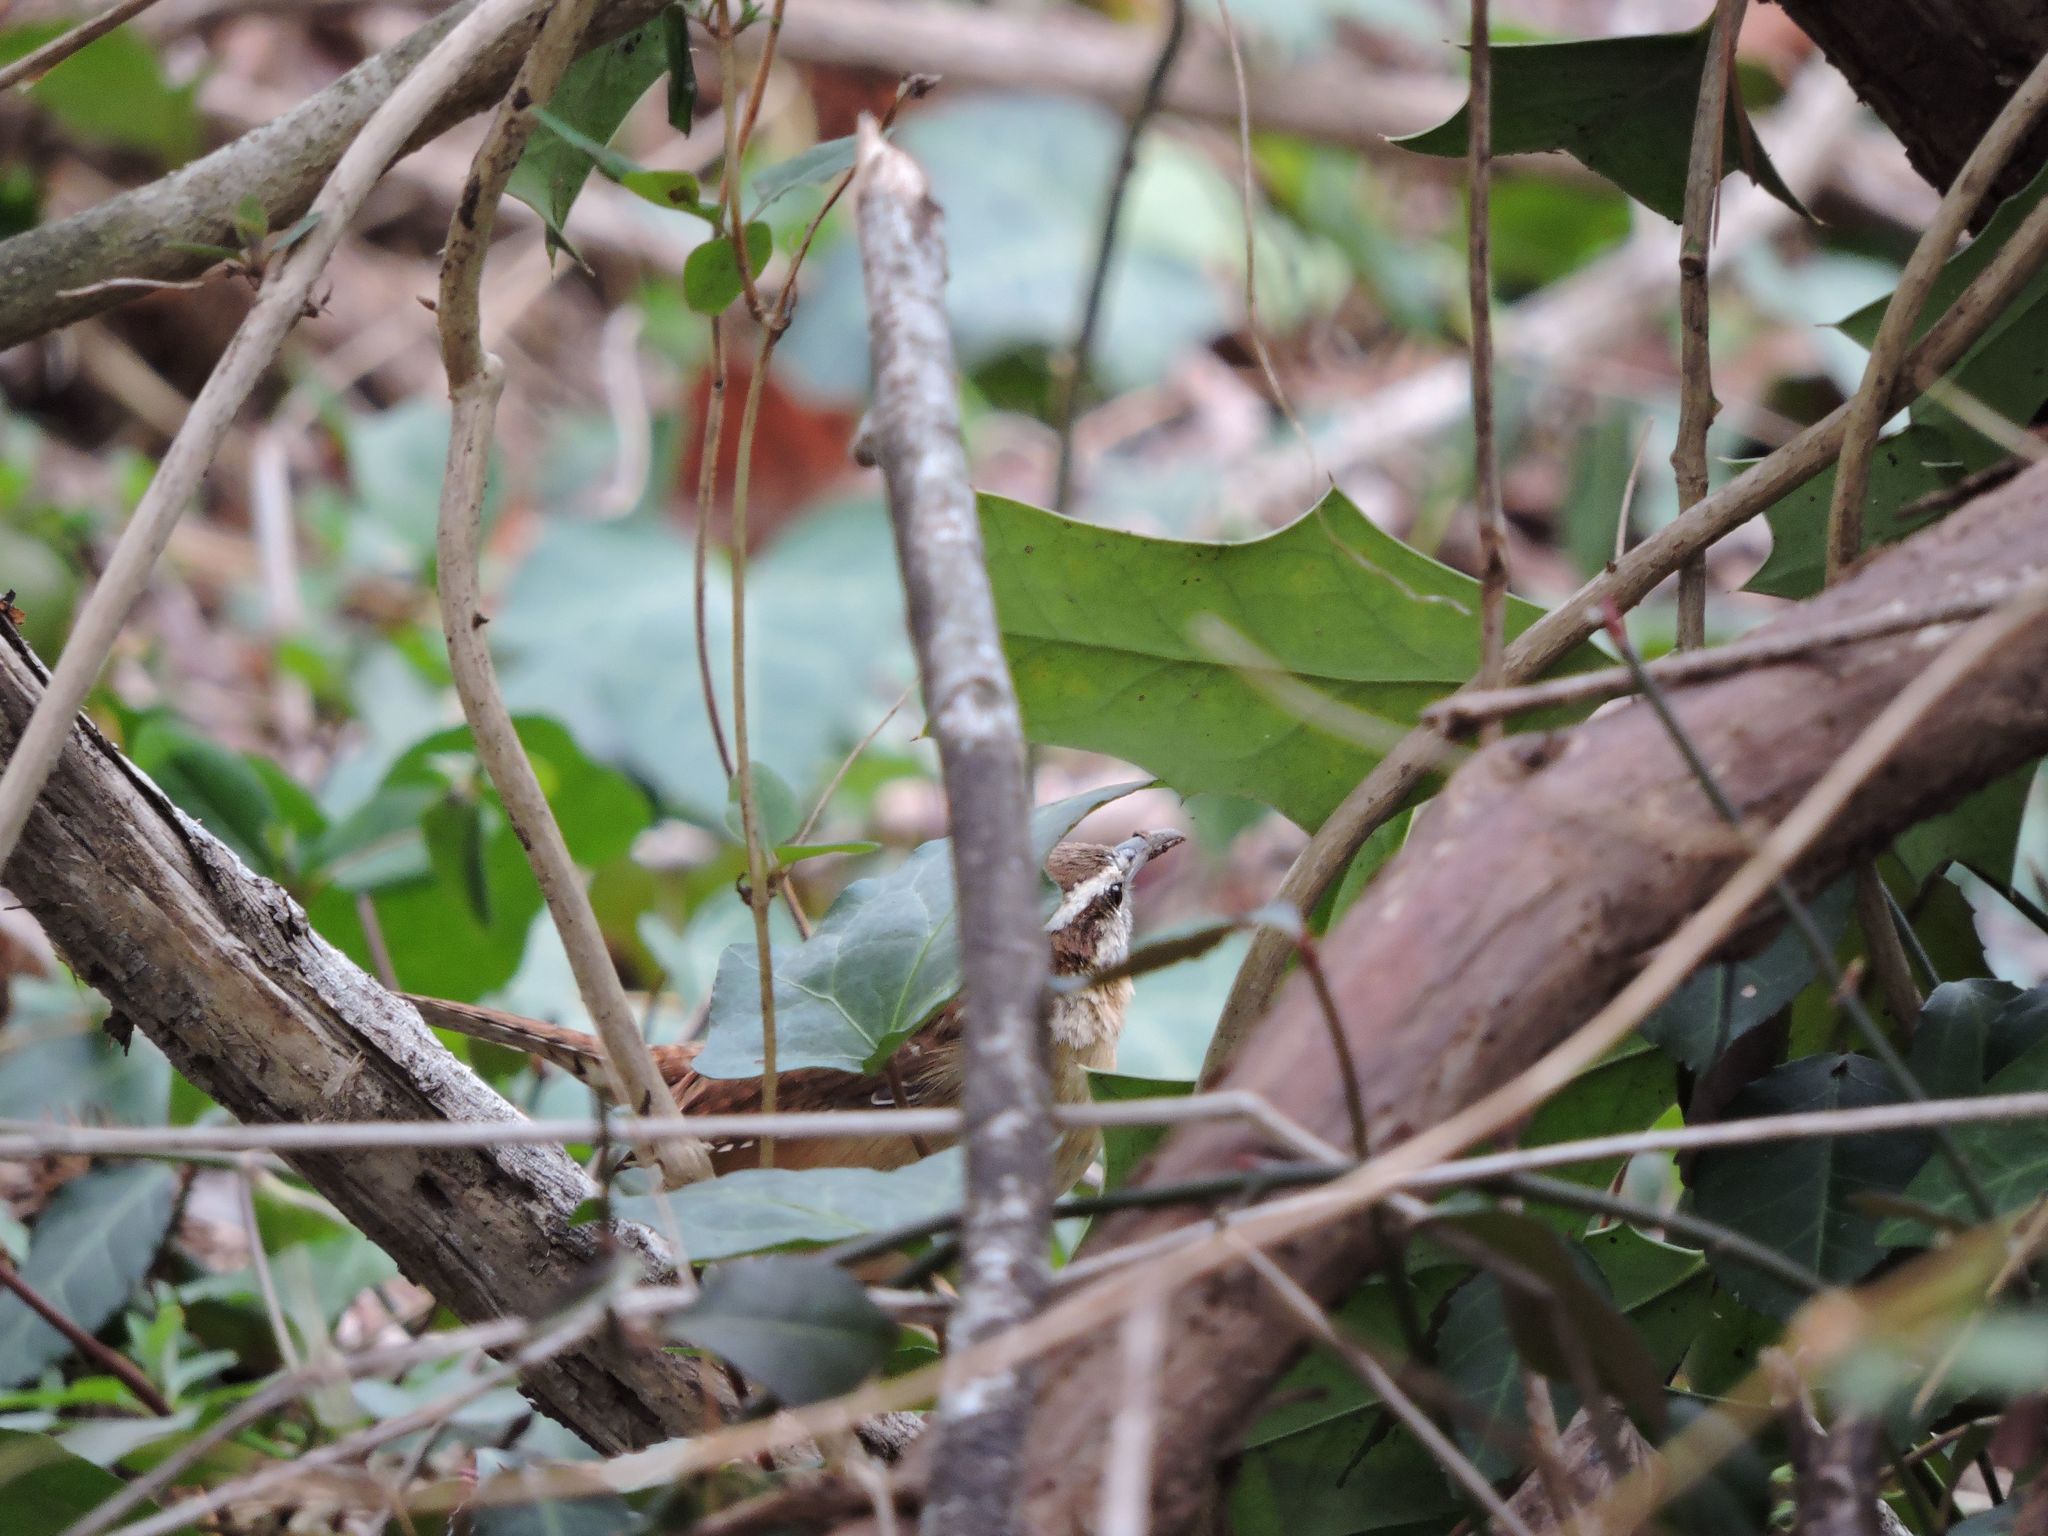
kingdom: Animalia
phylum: Chordata
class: Aves
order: Passeriformes
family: Troglodytidae
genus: Thryothorus
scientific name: Thryothorus ludovicianus
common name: Carolina wren
